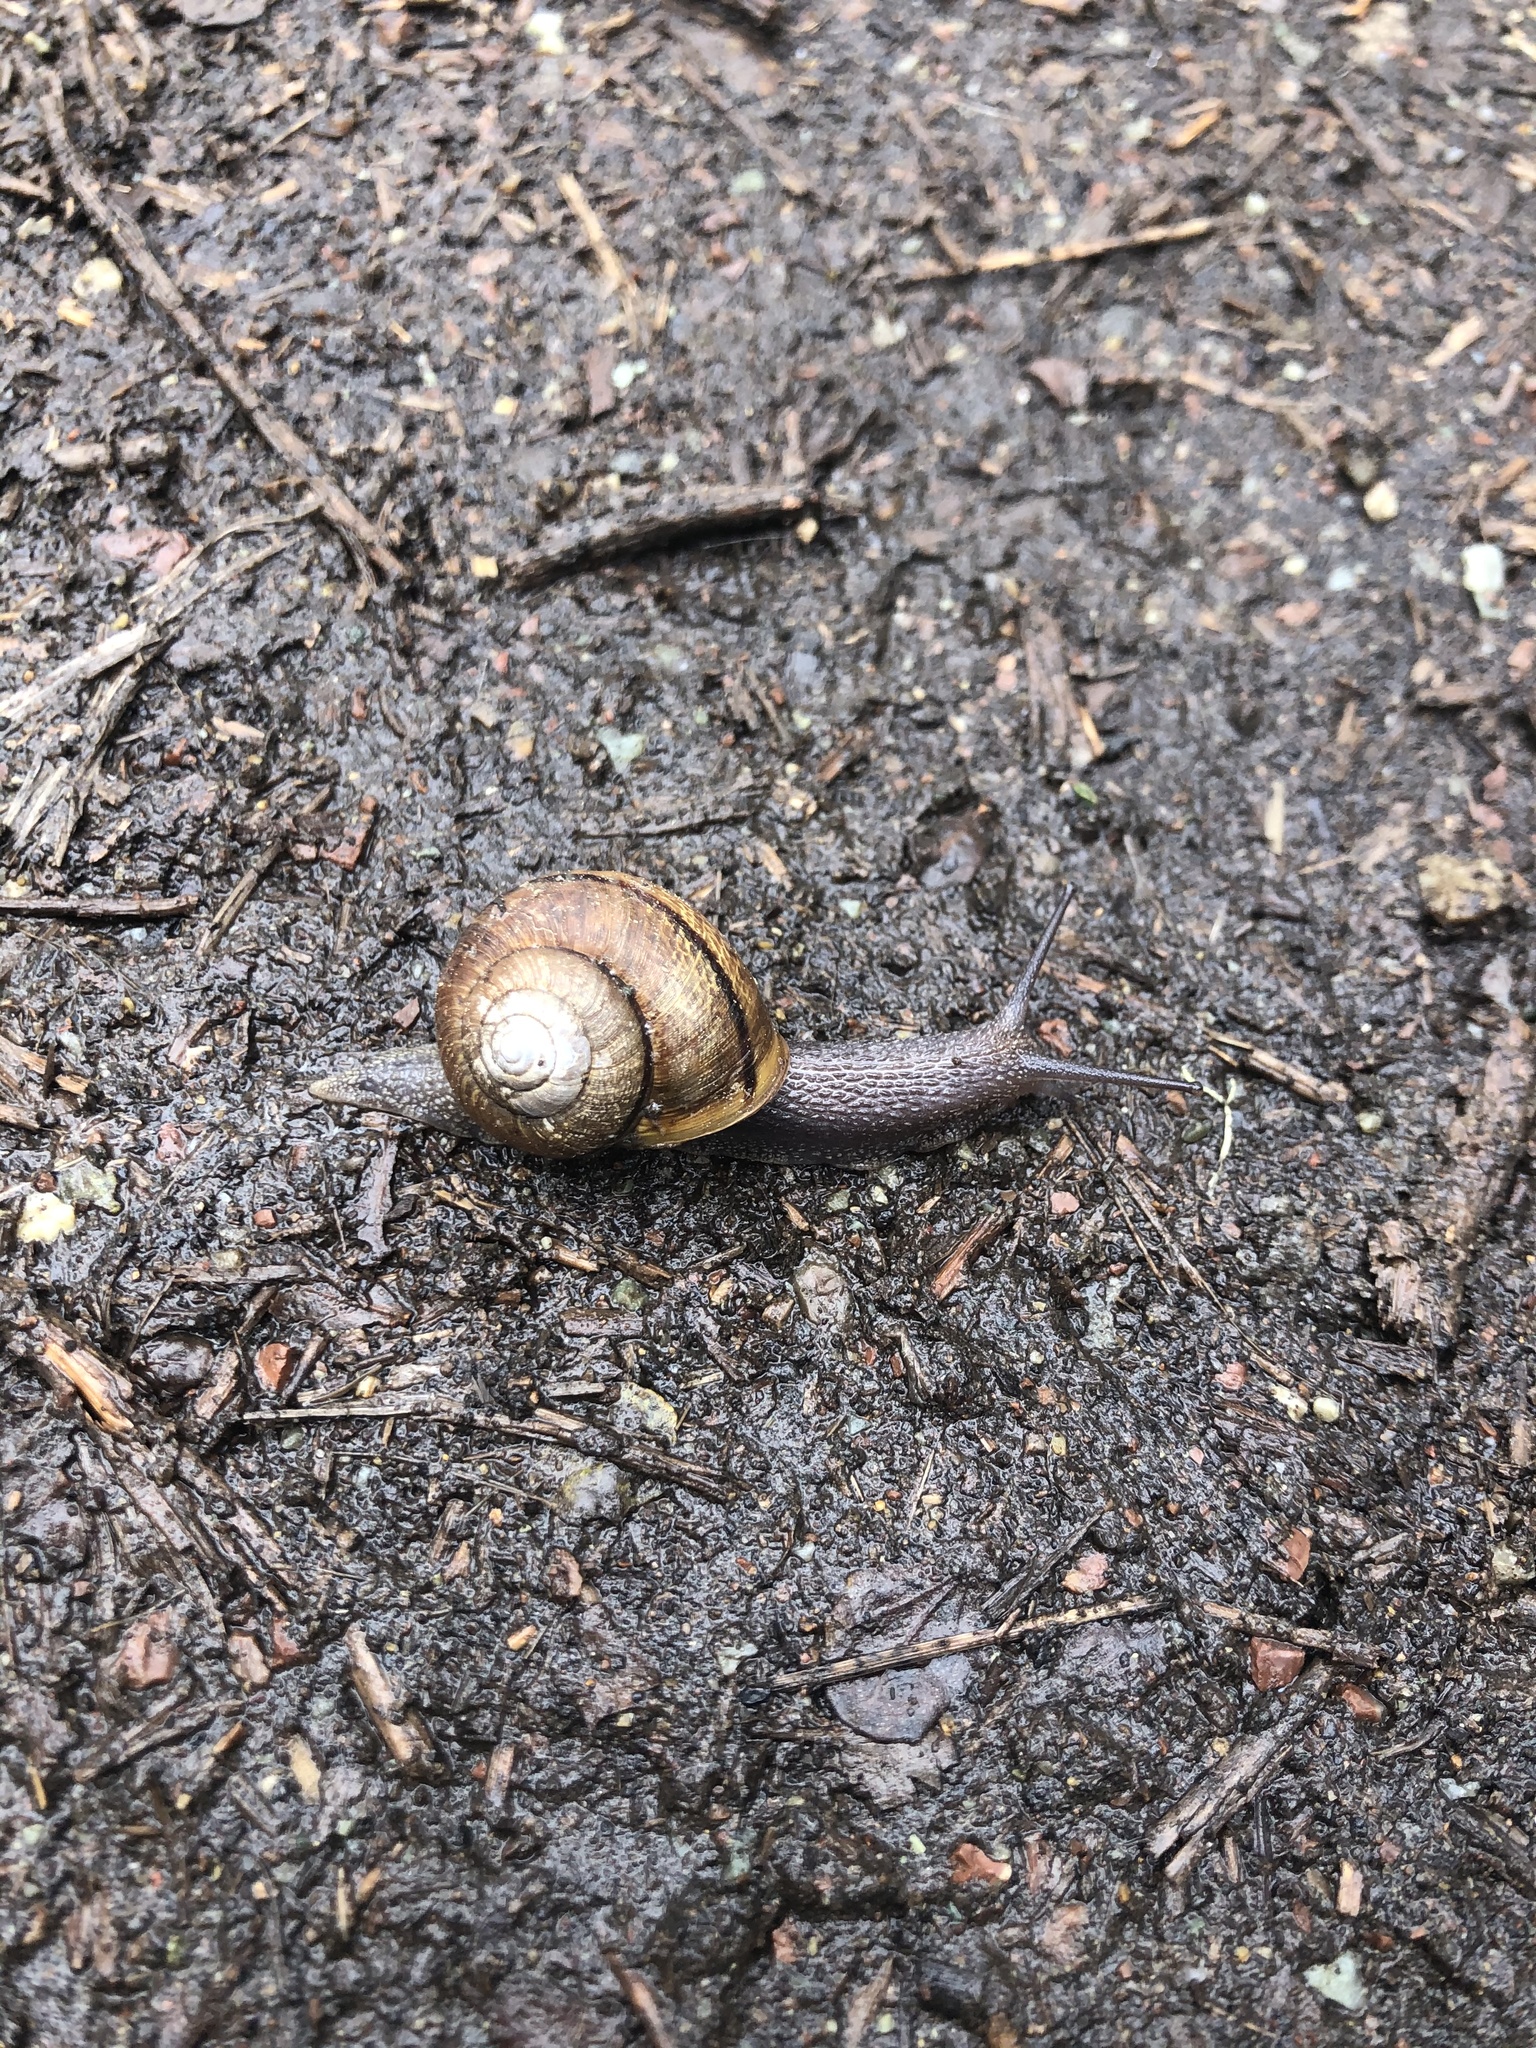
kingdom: Animalia
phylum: Mollusca
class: Gastropoda
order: Stylommatophora
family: Xanthonychidae
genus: Helminthoglypta
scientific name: Helminthoglypta arrosa
